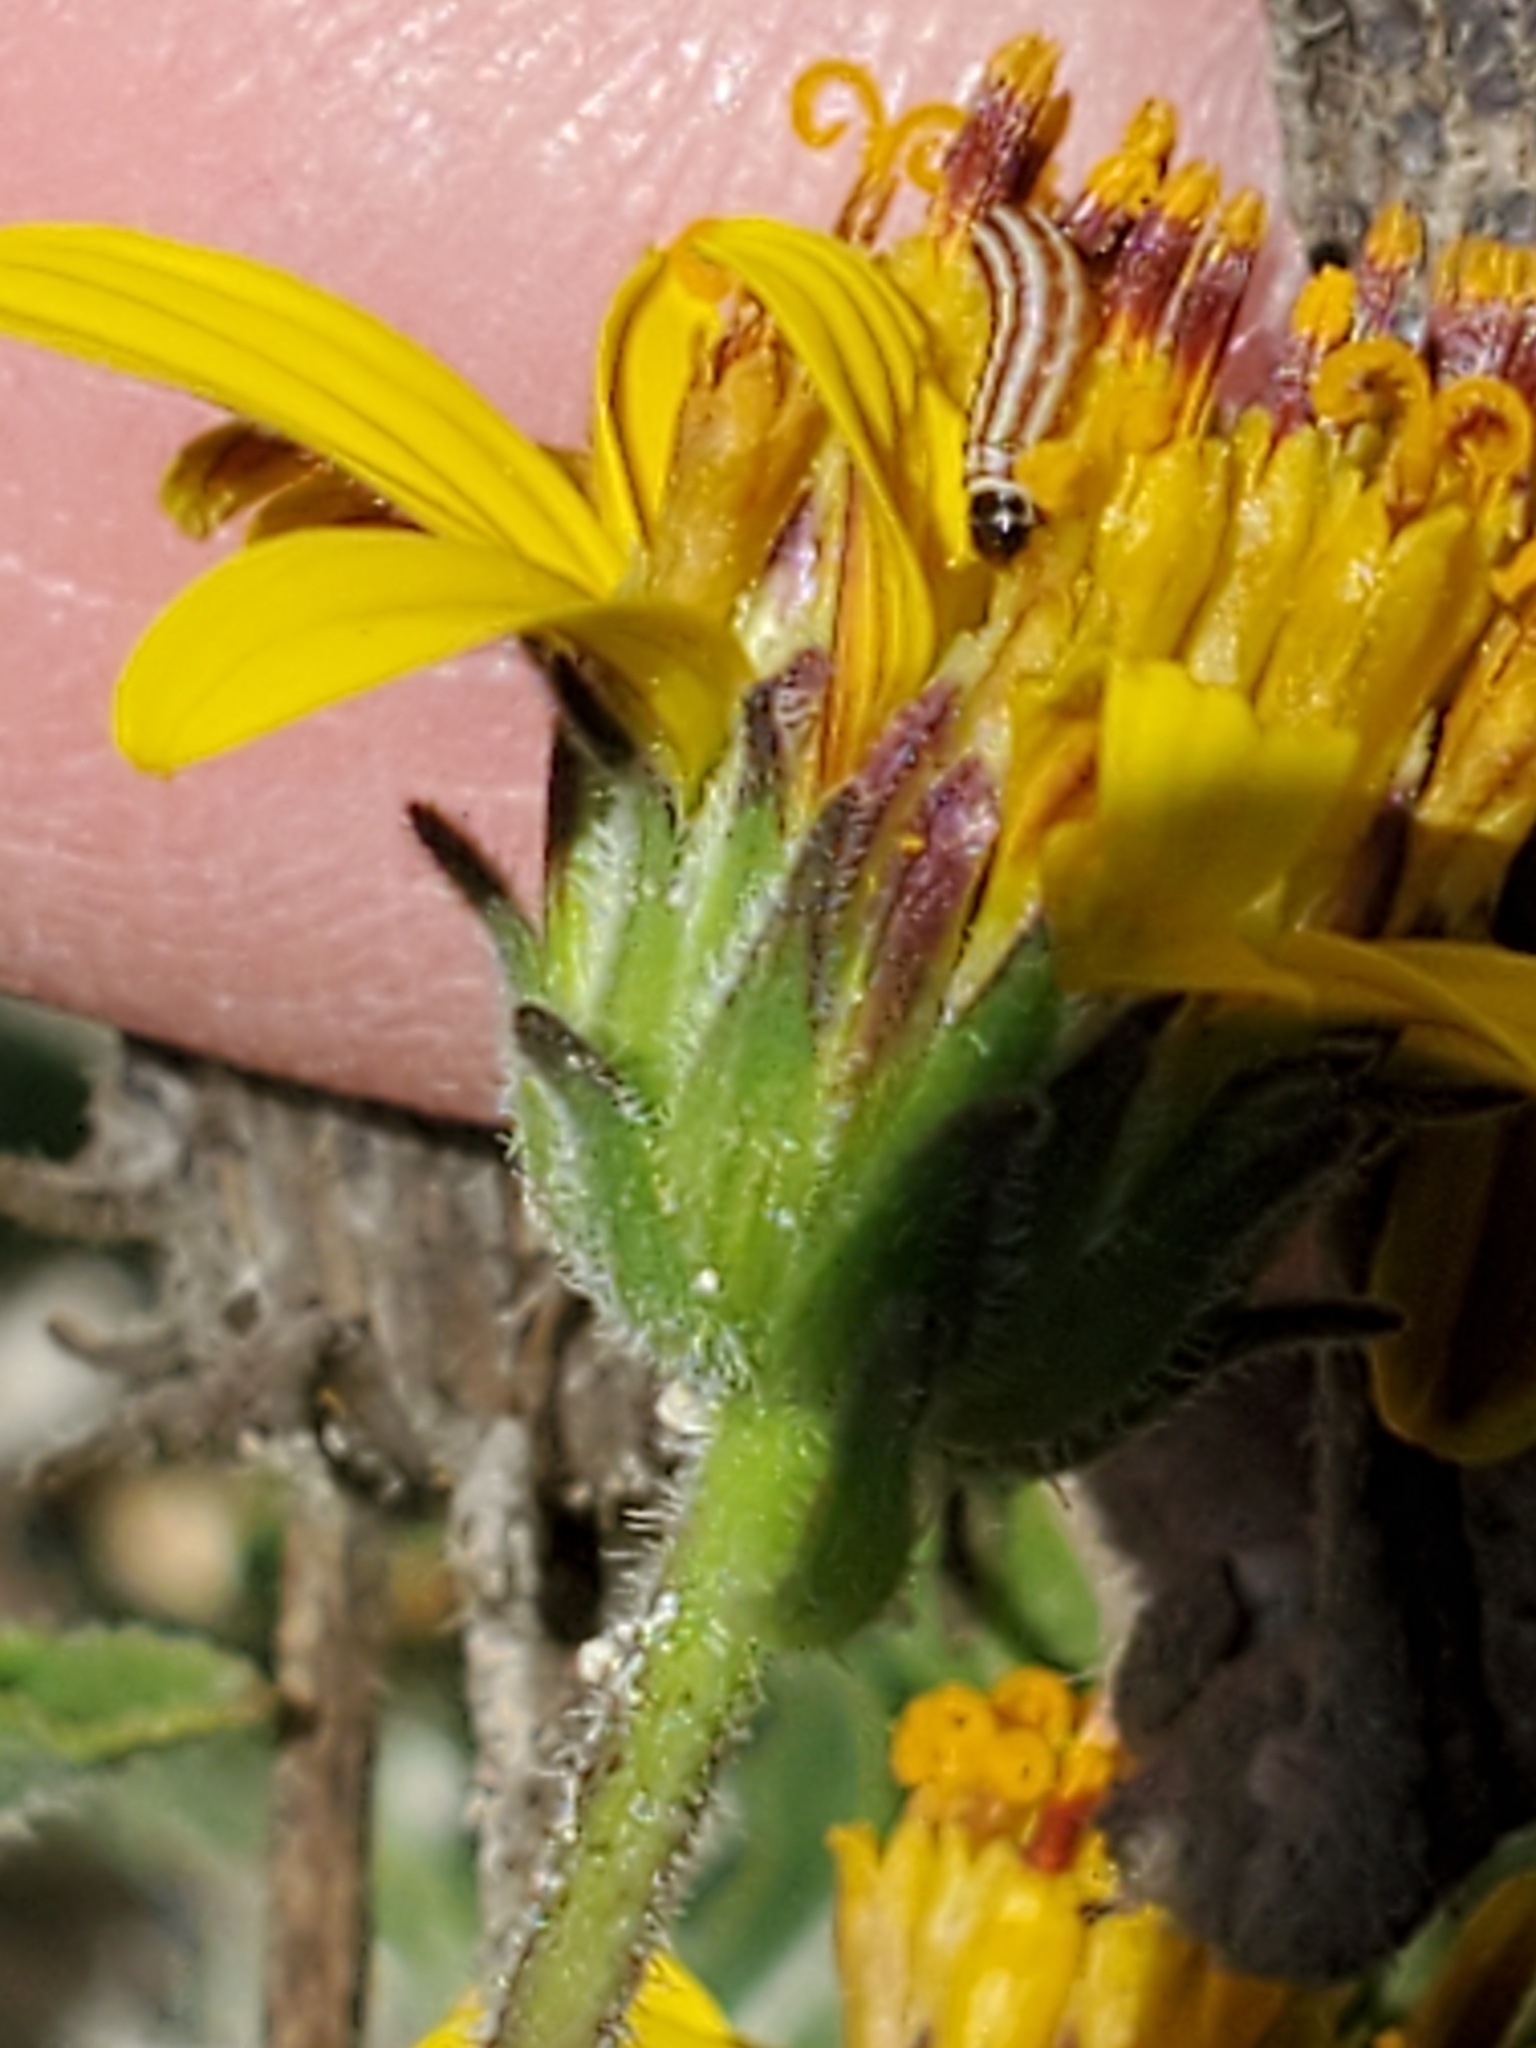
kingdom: Plantae
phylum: Tracheophyta
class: Magnoliopsida
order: Asterales
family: Asteraceae
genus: Simsia
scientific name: Simsia calva
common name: Awnless bush-sunflower
